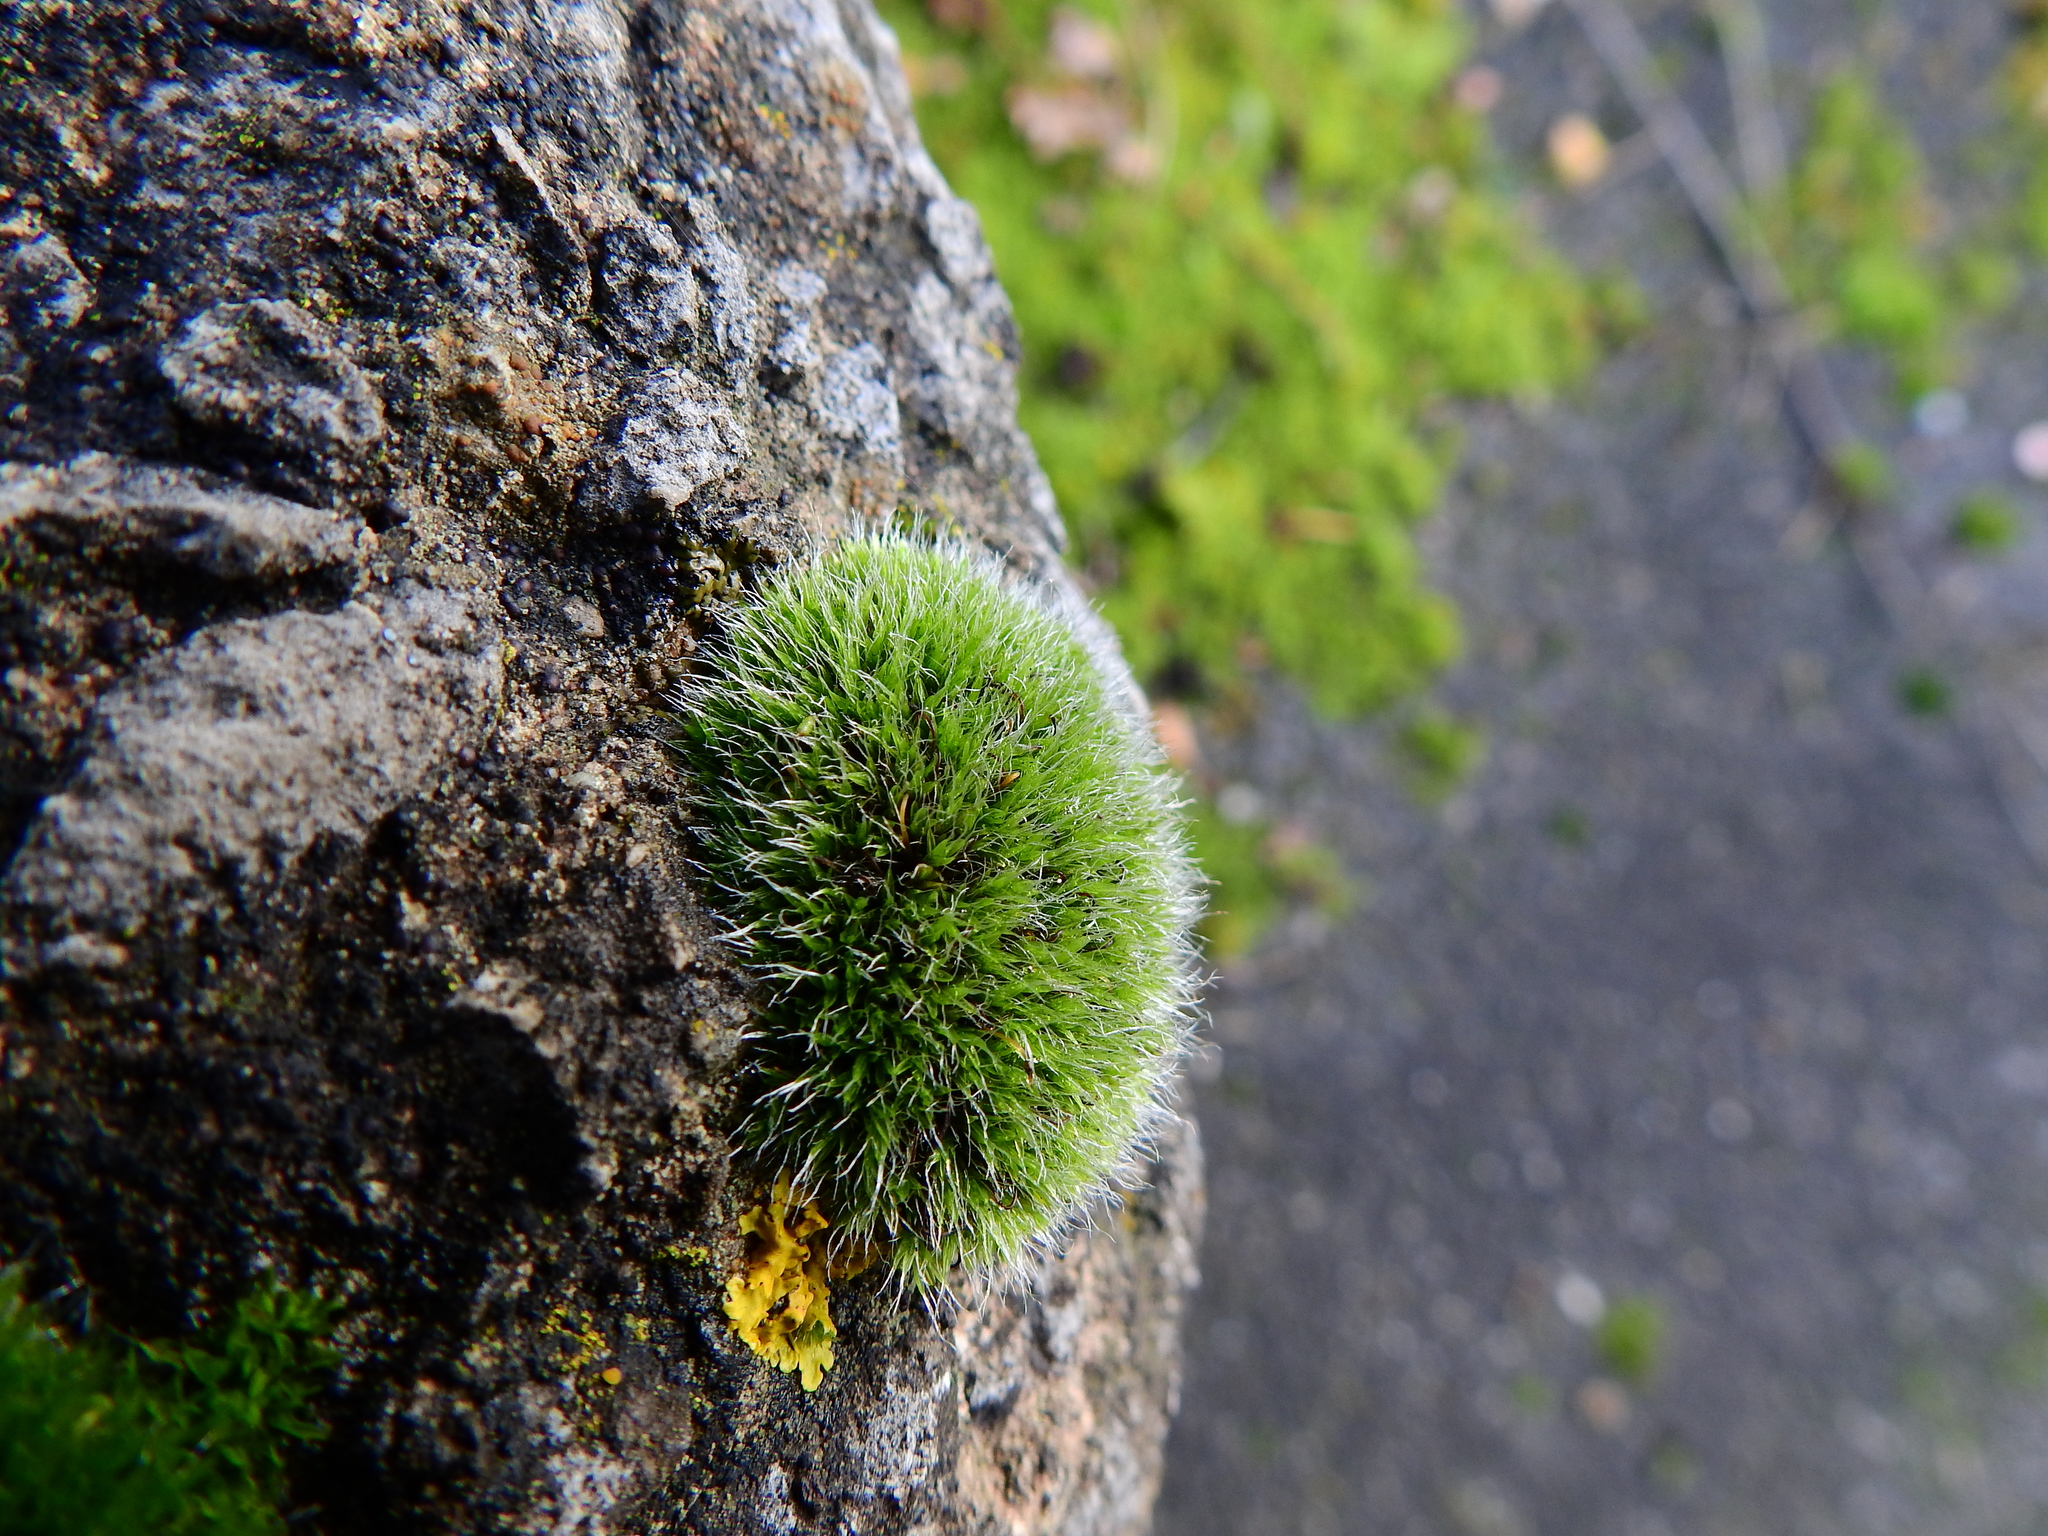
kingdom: Plantae
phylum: Bryophyta
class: Bryopsida
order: Grimmiales
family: Grimmiaceae
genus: Grimmia
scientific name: Grimmia pulvinata
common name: Grey-cushioned grimmia
